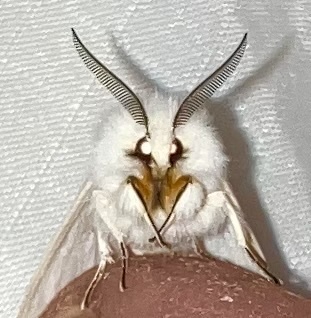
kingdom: Animalia
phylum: Arthropoda
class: Insecta
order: Lepidoptera
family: Erebidae
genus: Spilosoma
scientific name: Spilosoma congrua
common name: Agreeable tiger moth
